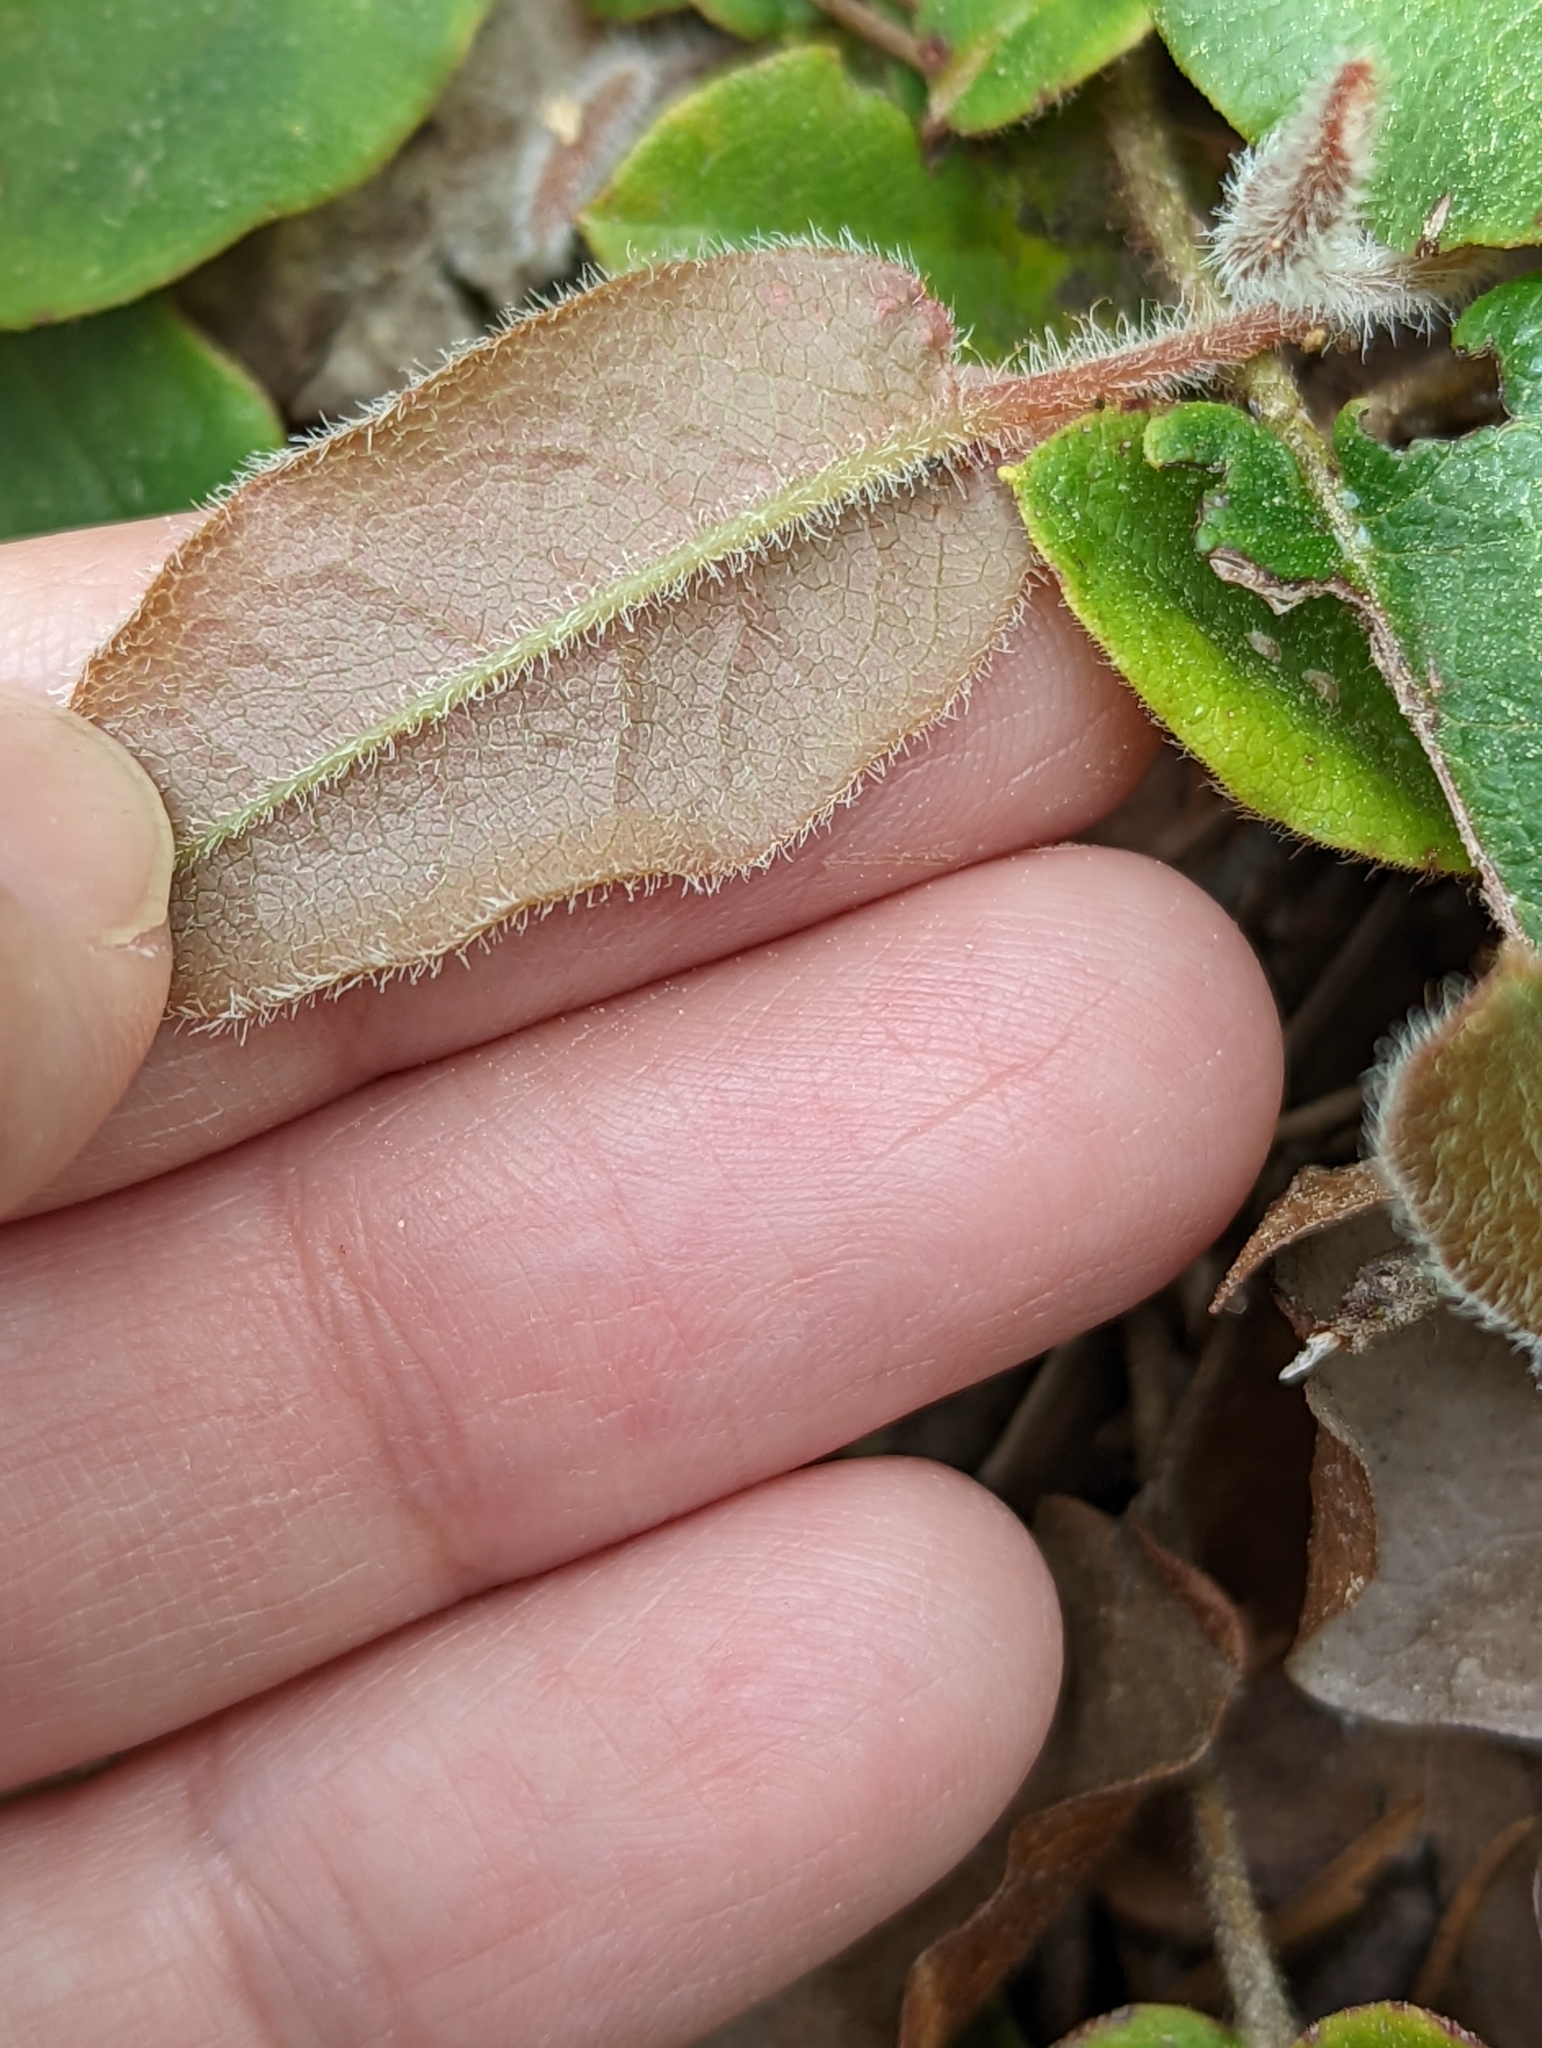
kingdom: Plantae
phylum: Tracheophyta
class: Magnoliopsida
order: Ericales
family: Ericaceae
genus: Epigaea
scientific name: Epigaea repens
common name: Gravelroot
